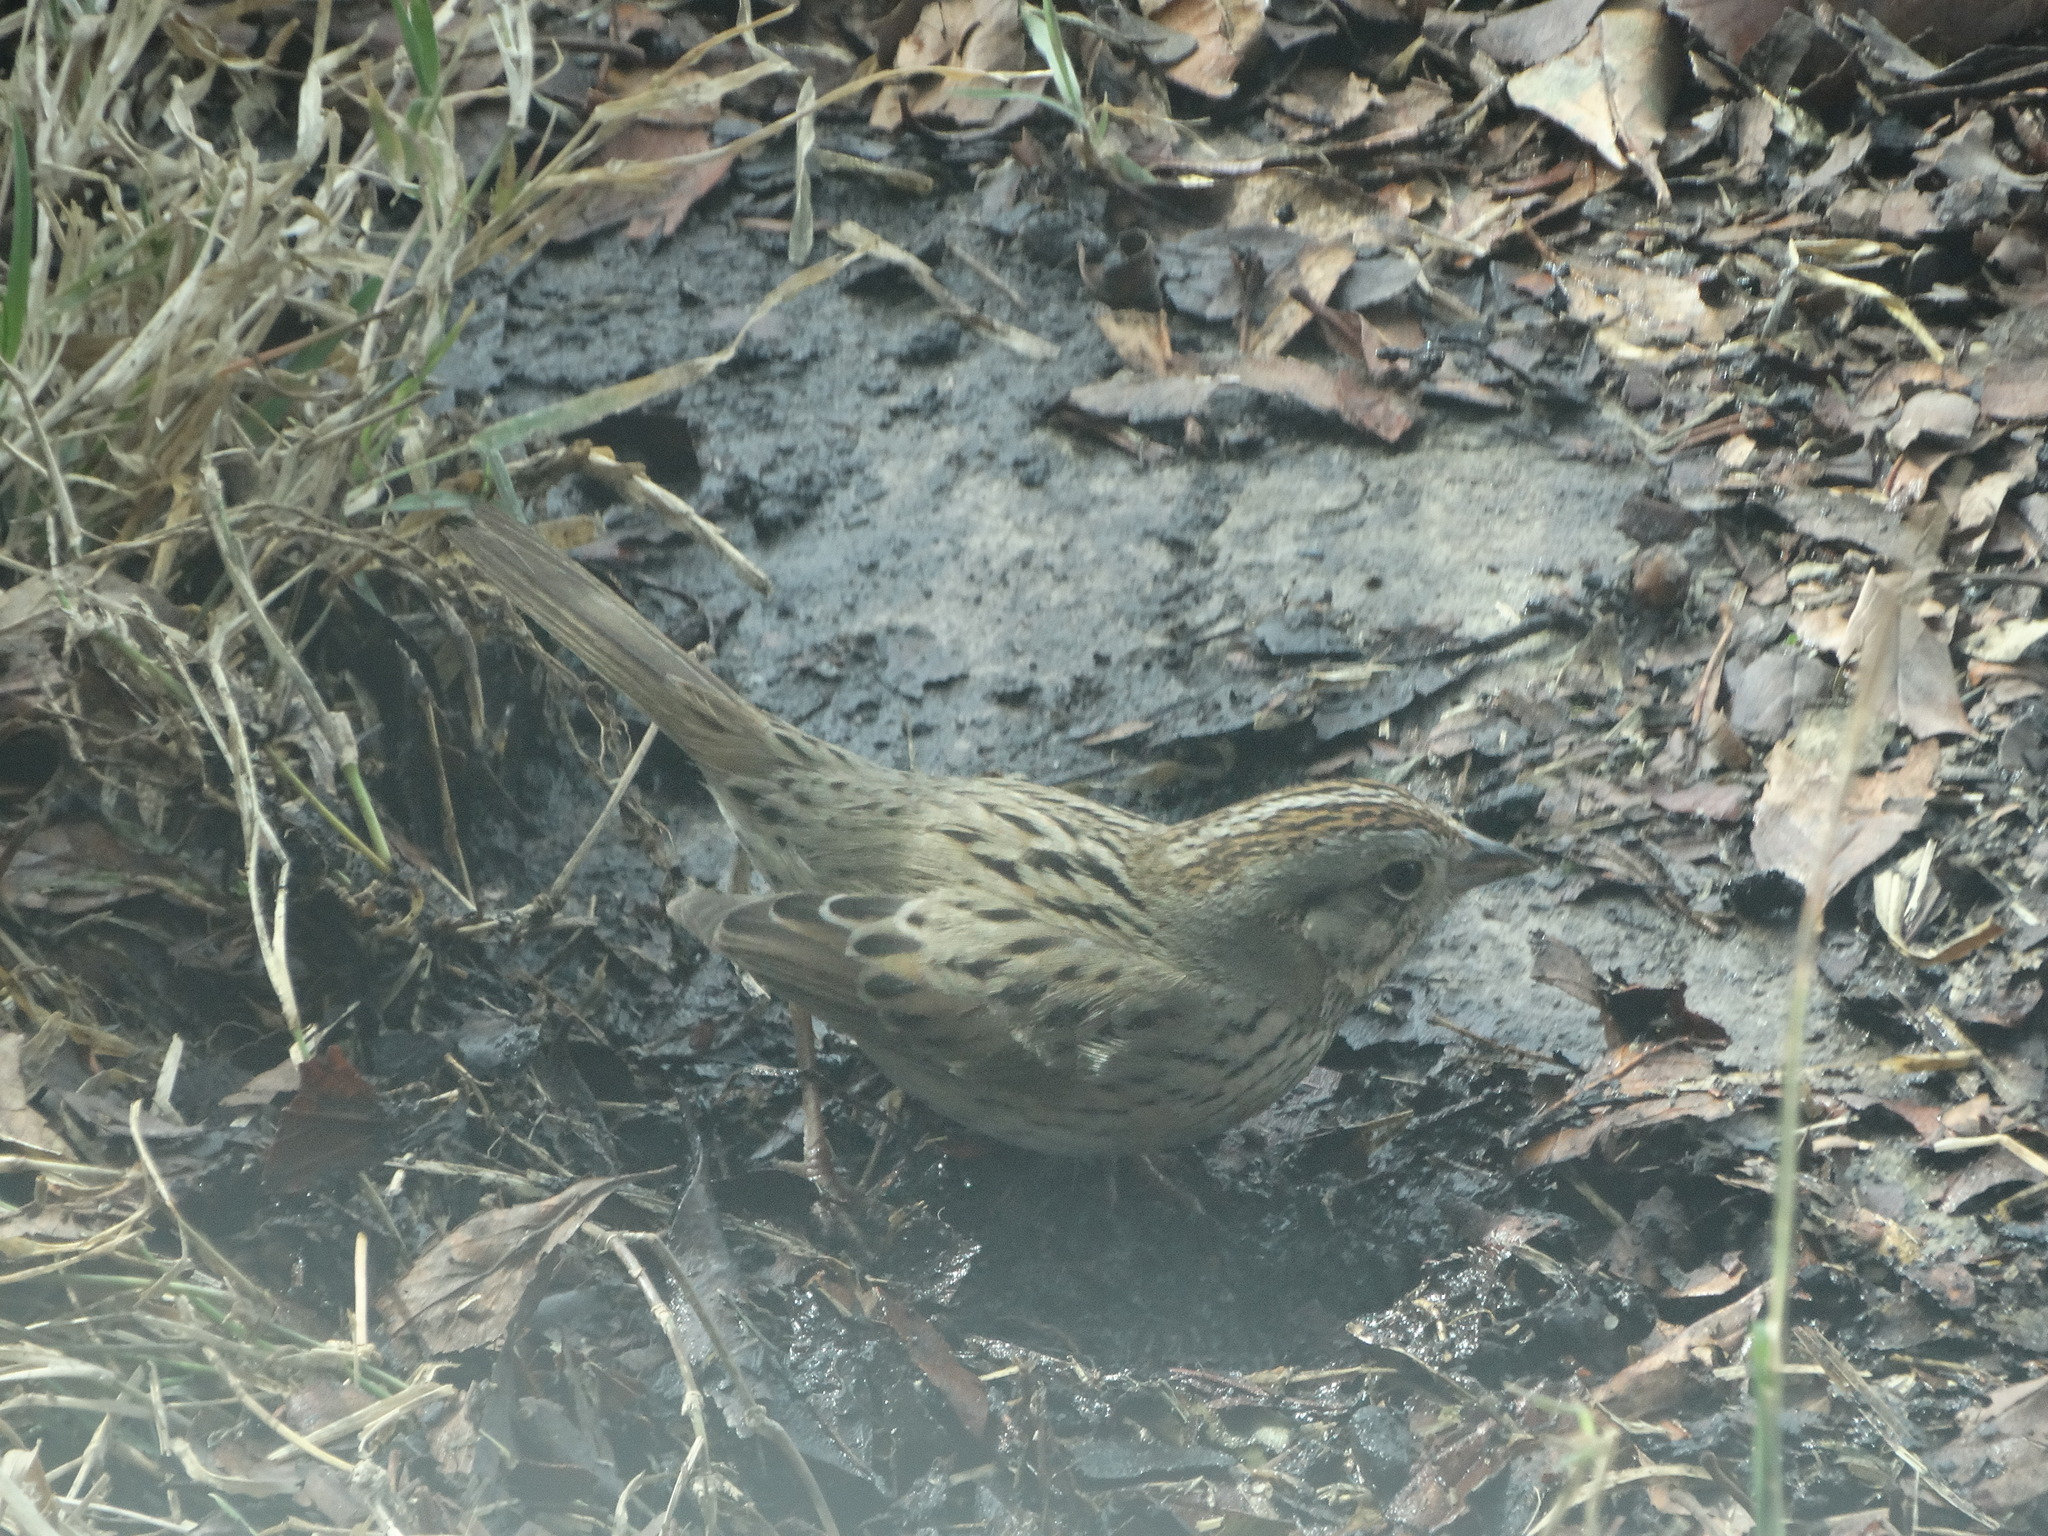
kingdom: Animalia
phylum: Chordata
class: Aves
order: Passeriformes
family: Passerellidae
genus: Melospiza
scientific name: Melospiza lincolnii
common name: Lincoln's sparrow
